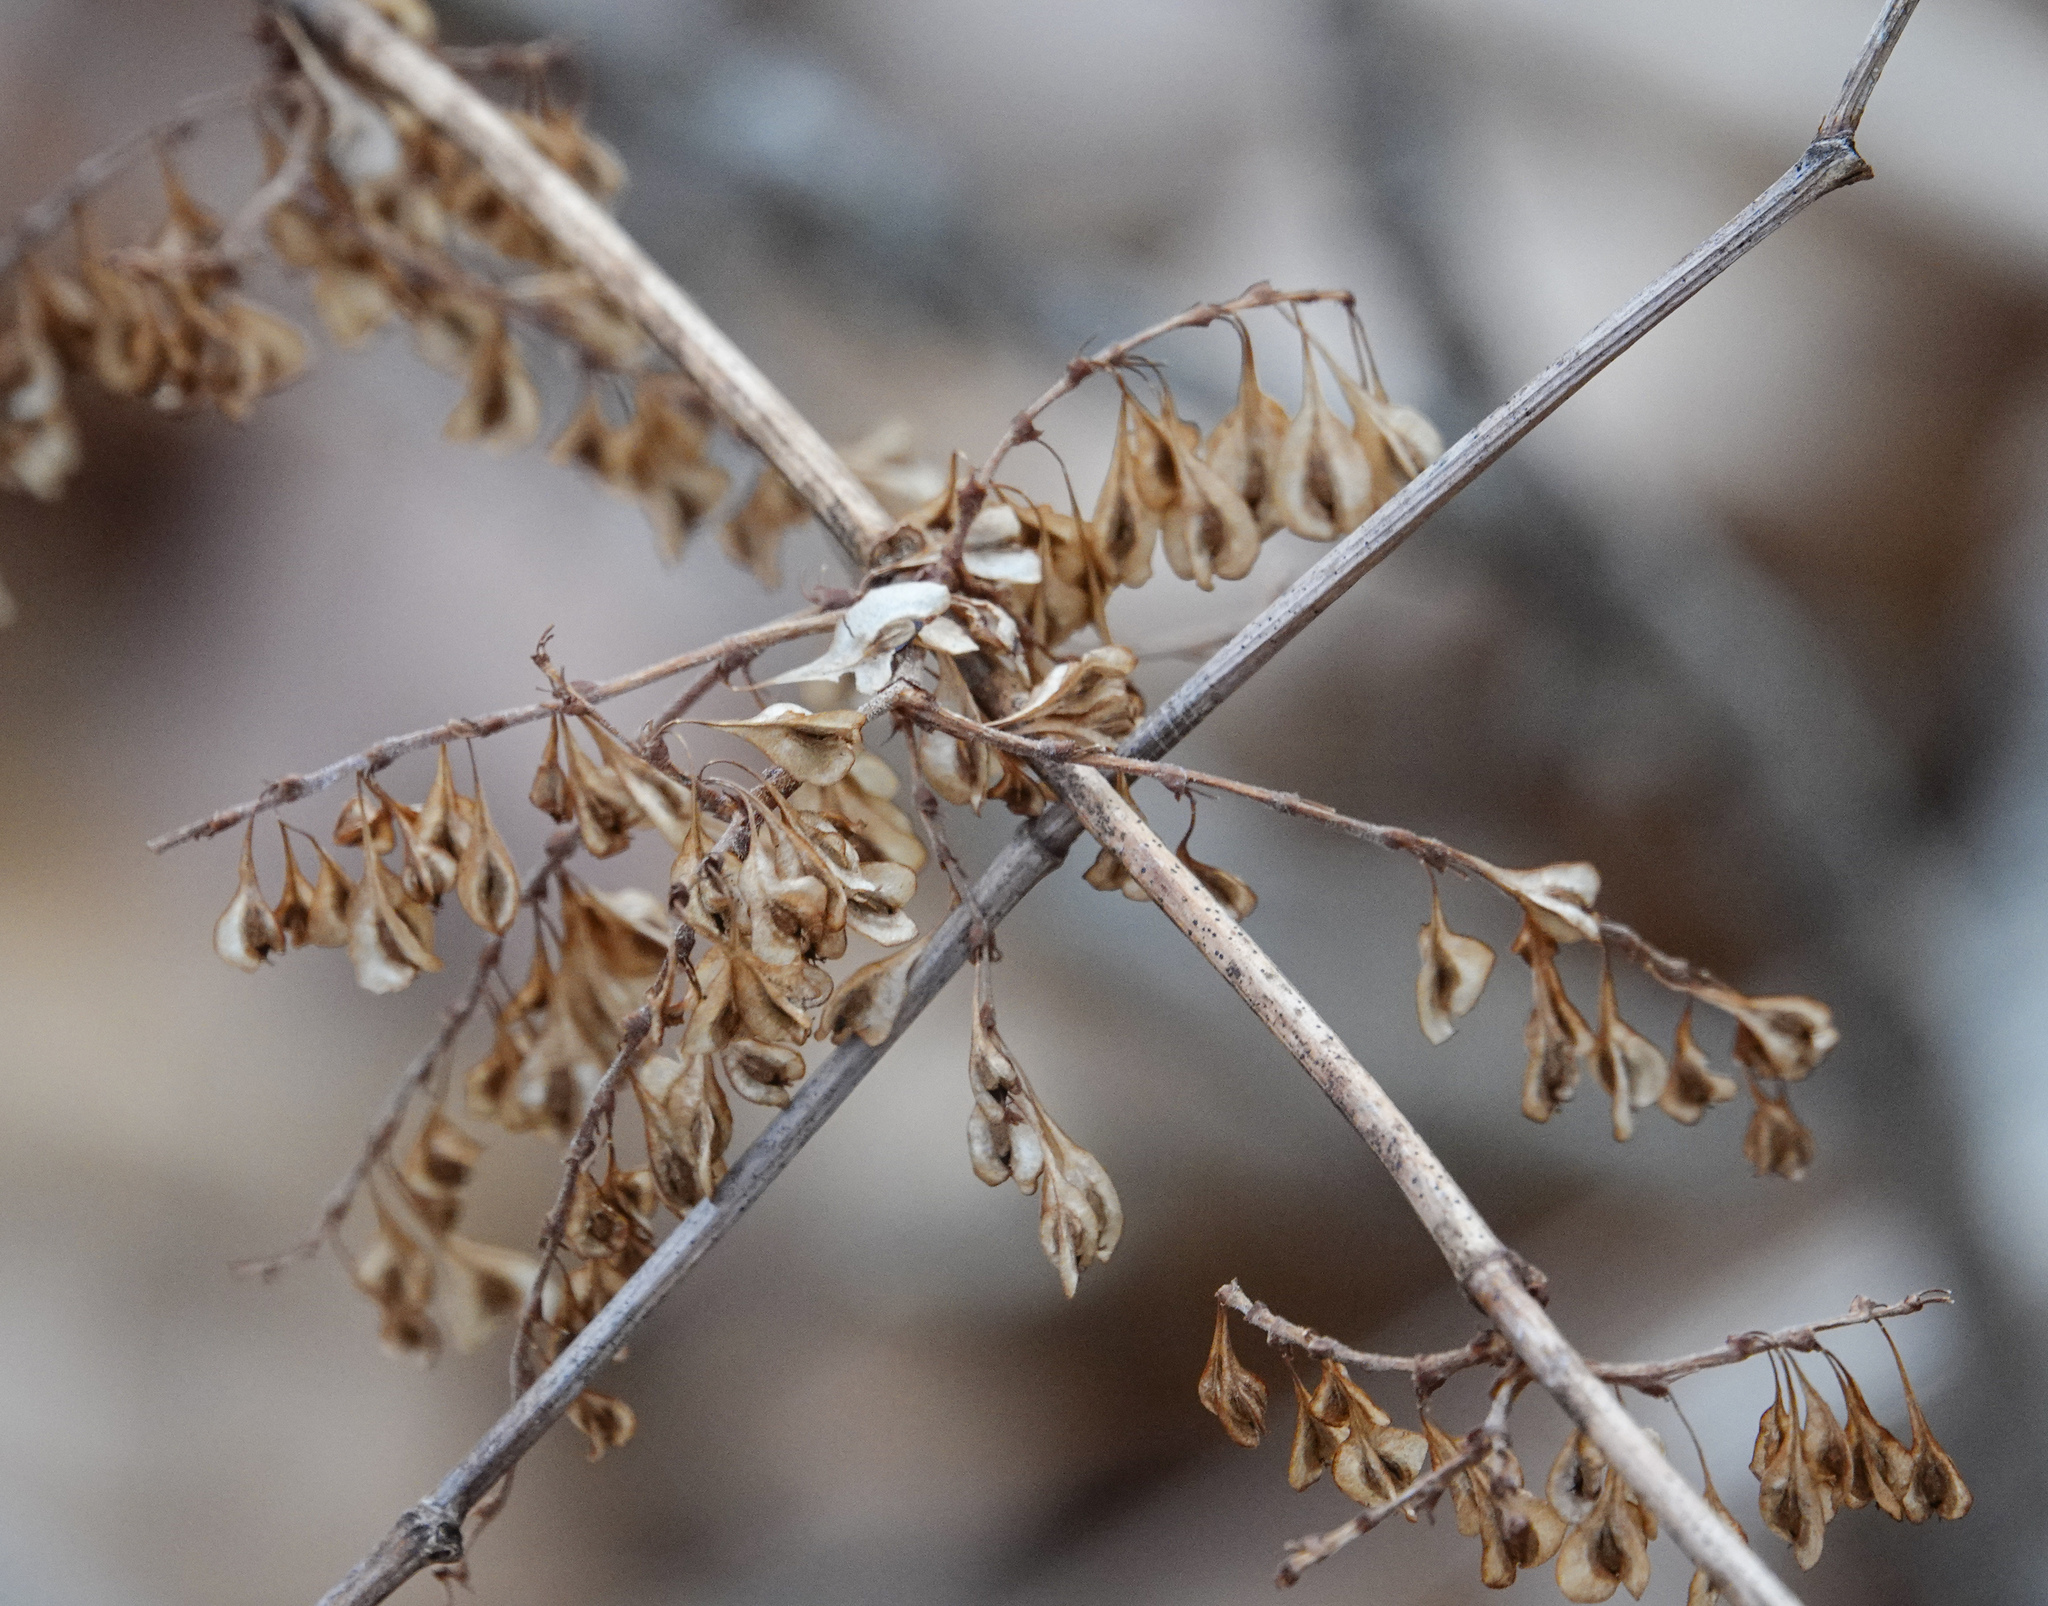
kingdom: Plantae
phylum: Tracheophyta
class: Magnoliopsida
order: Caryophyllales
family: Polygonaceae
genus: Reynoutria
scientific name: Reynoutria japonica
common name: Japanese knotweed
